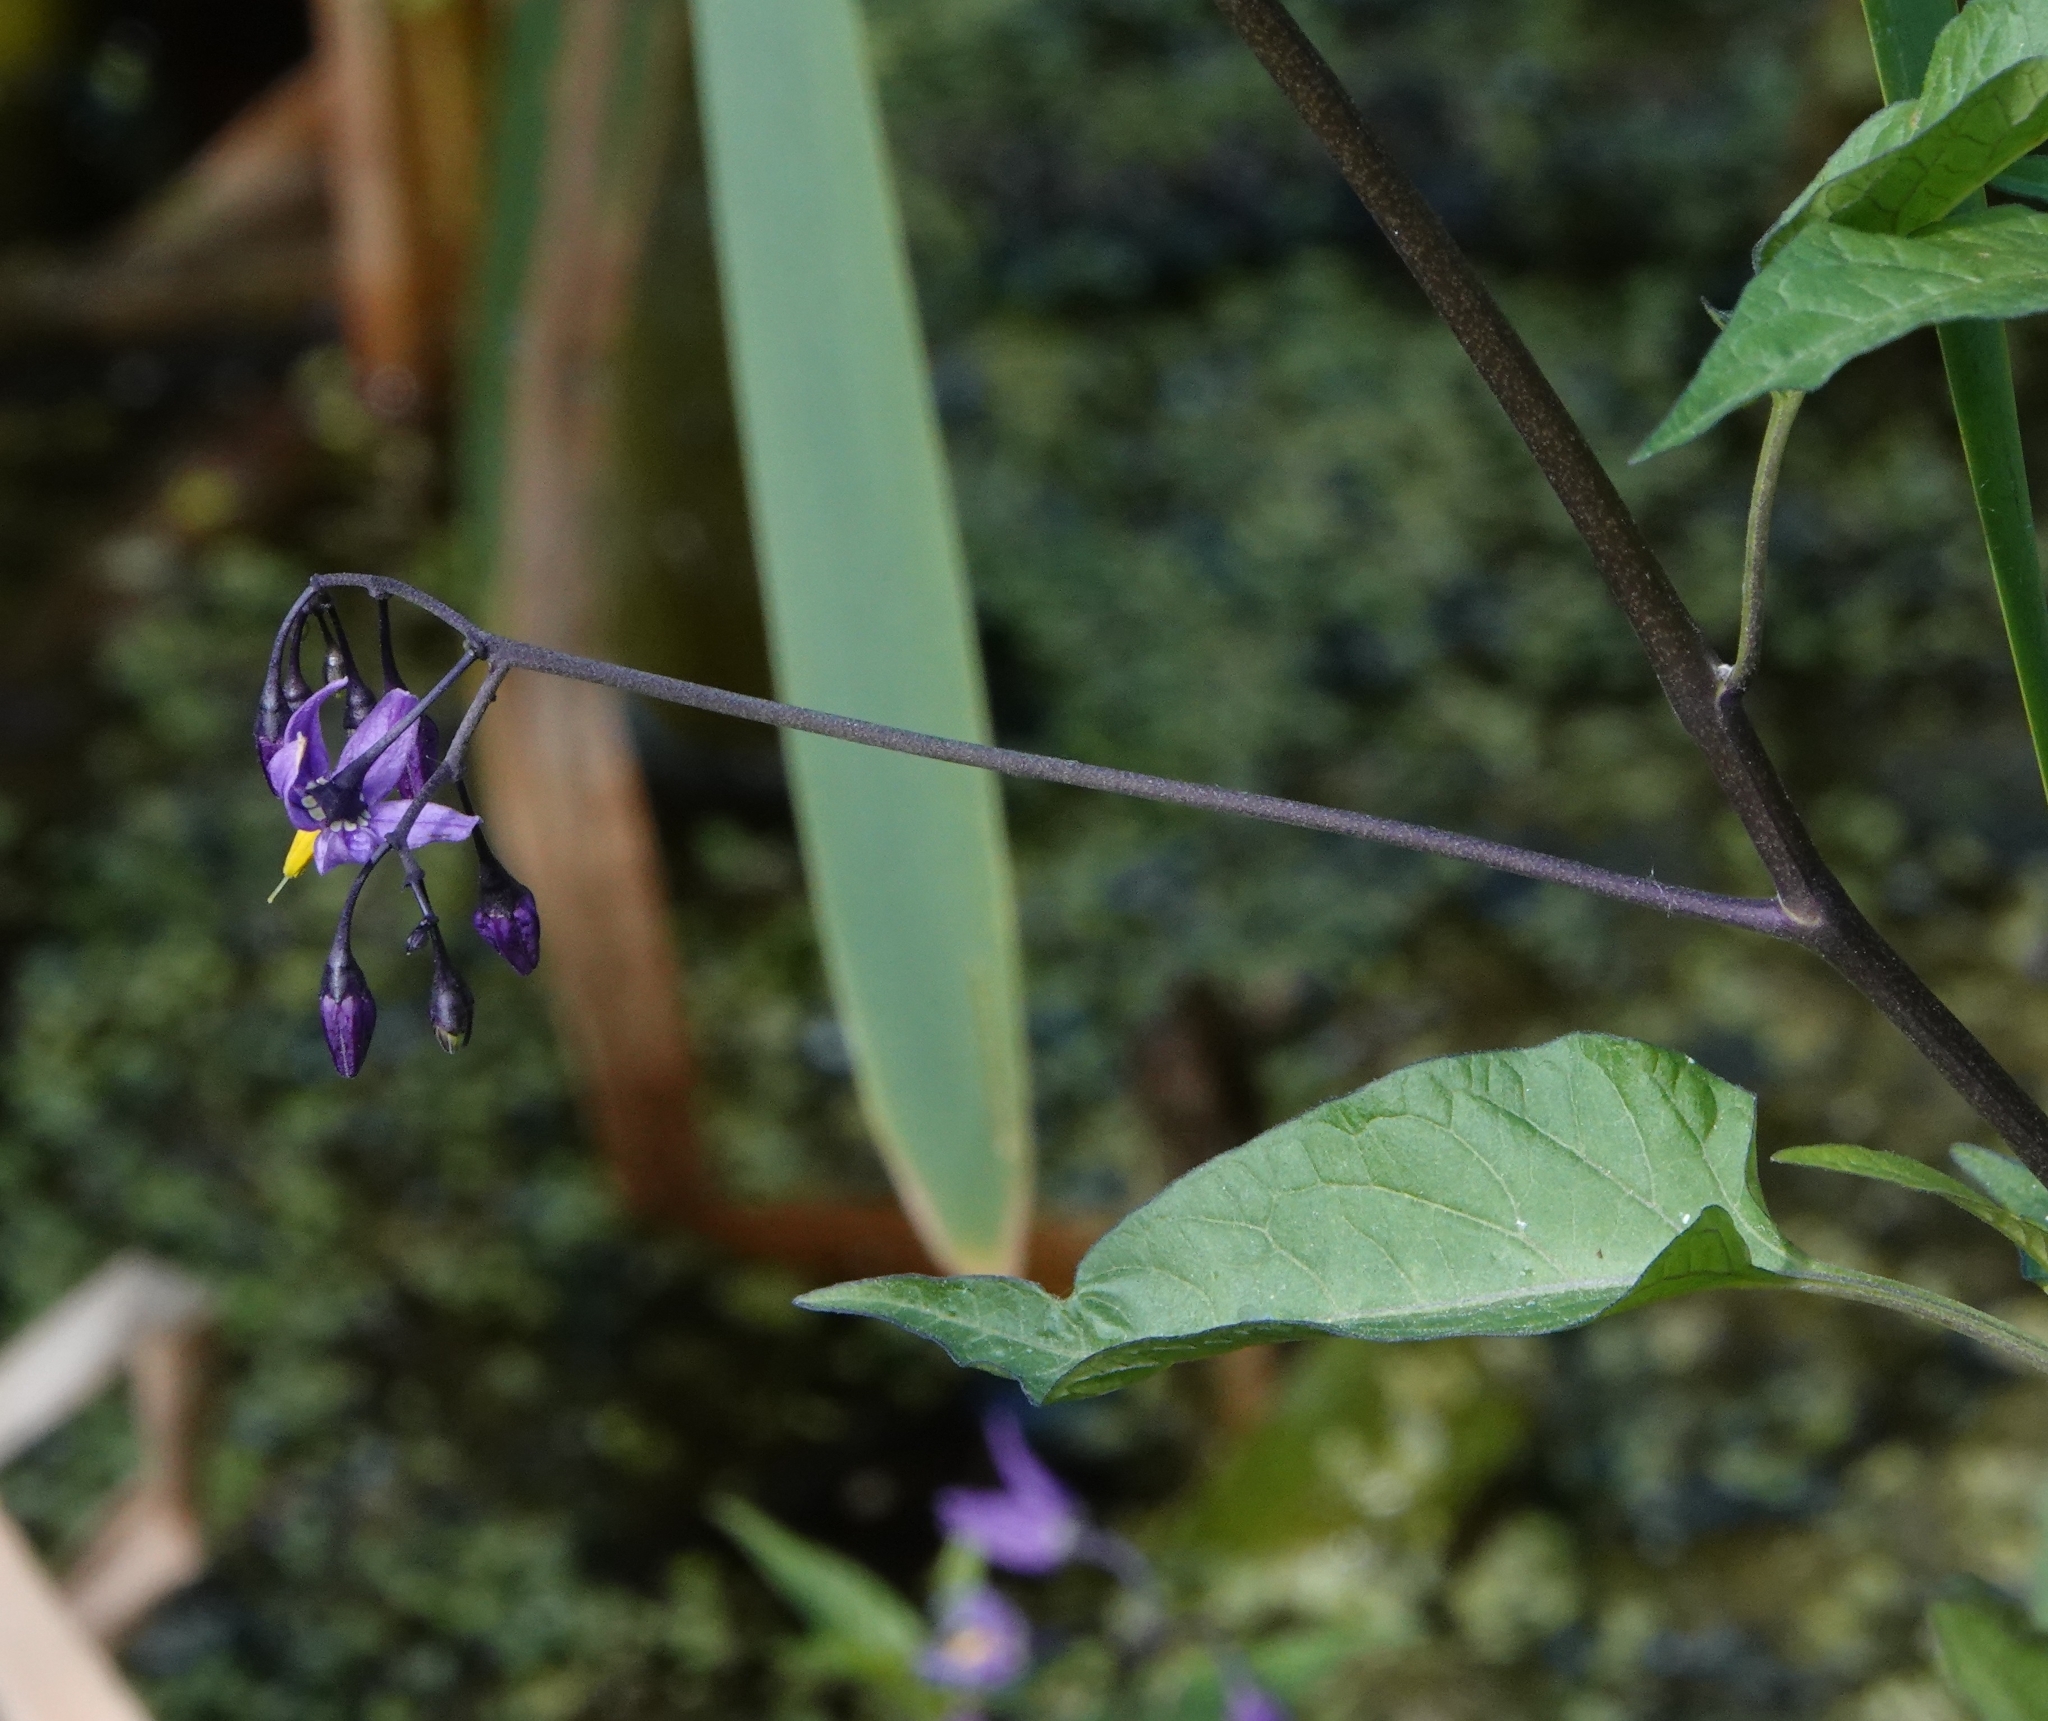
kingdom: Plantae
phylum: Tracheophyta
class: Magnoliopsida
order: Solanales
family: Solanaceae
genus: Solanum
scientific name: Solanum dulcamara
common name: Climbing nightshade
